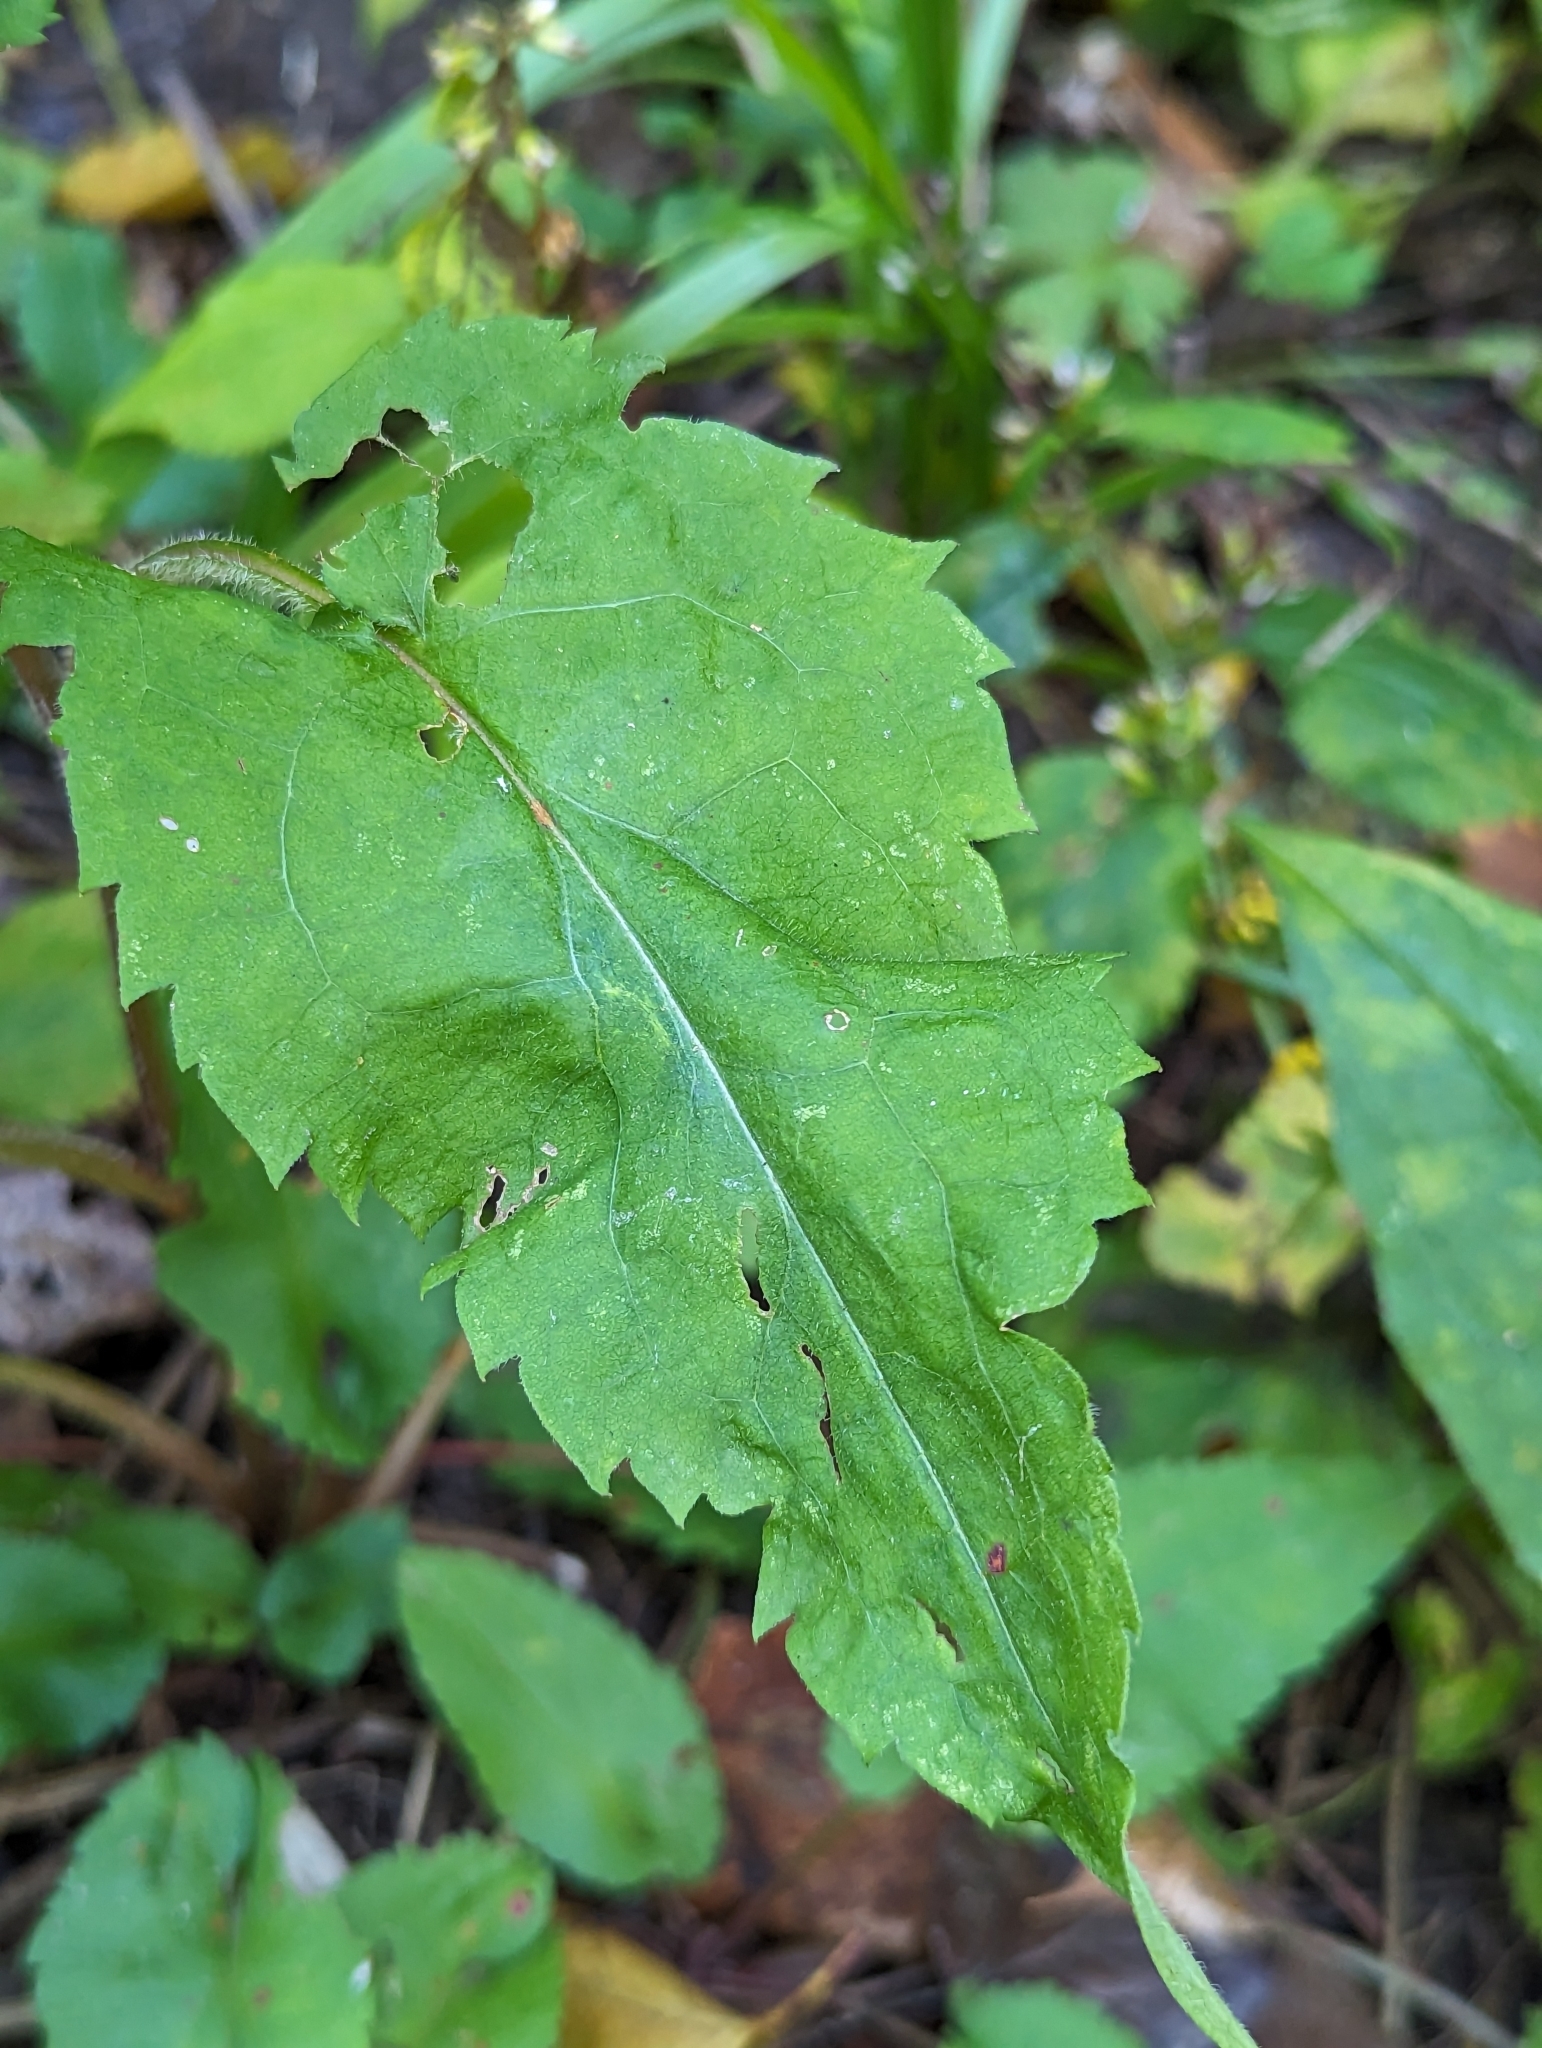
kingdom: Plantae
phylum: Tracheophyta
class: Magnoliopsida
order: Asterales
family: Asteraceae
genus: Symphyotrichum
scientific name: Symphyotrichum cordifolium
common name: Beeweed
